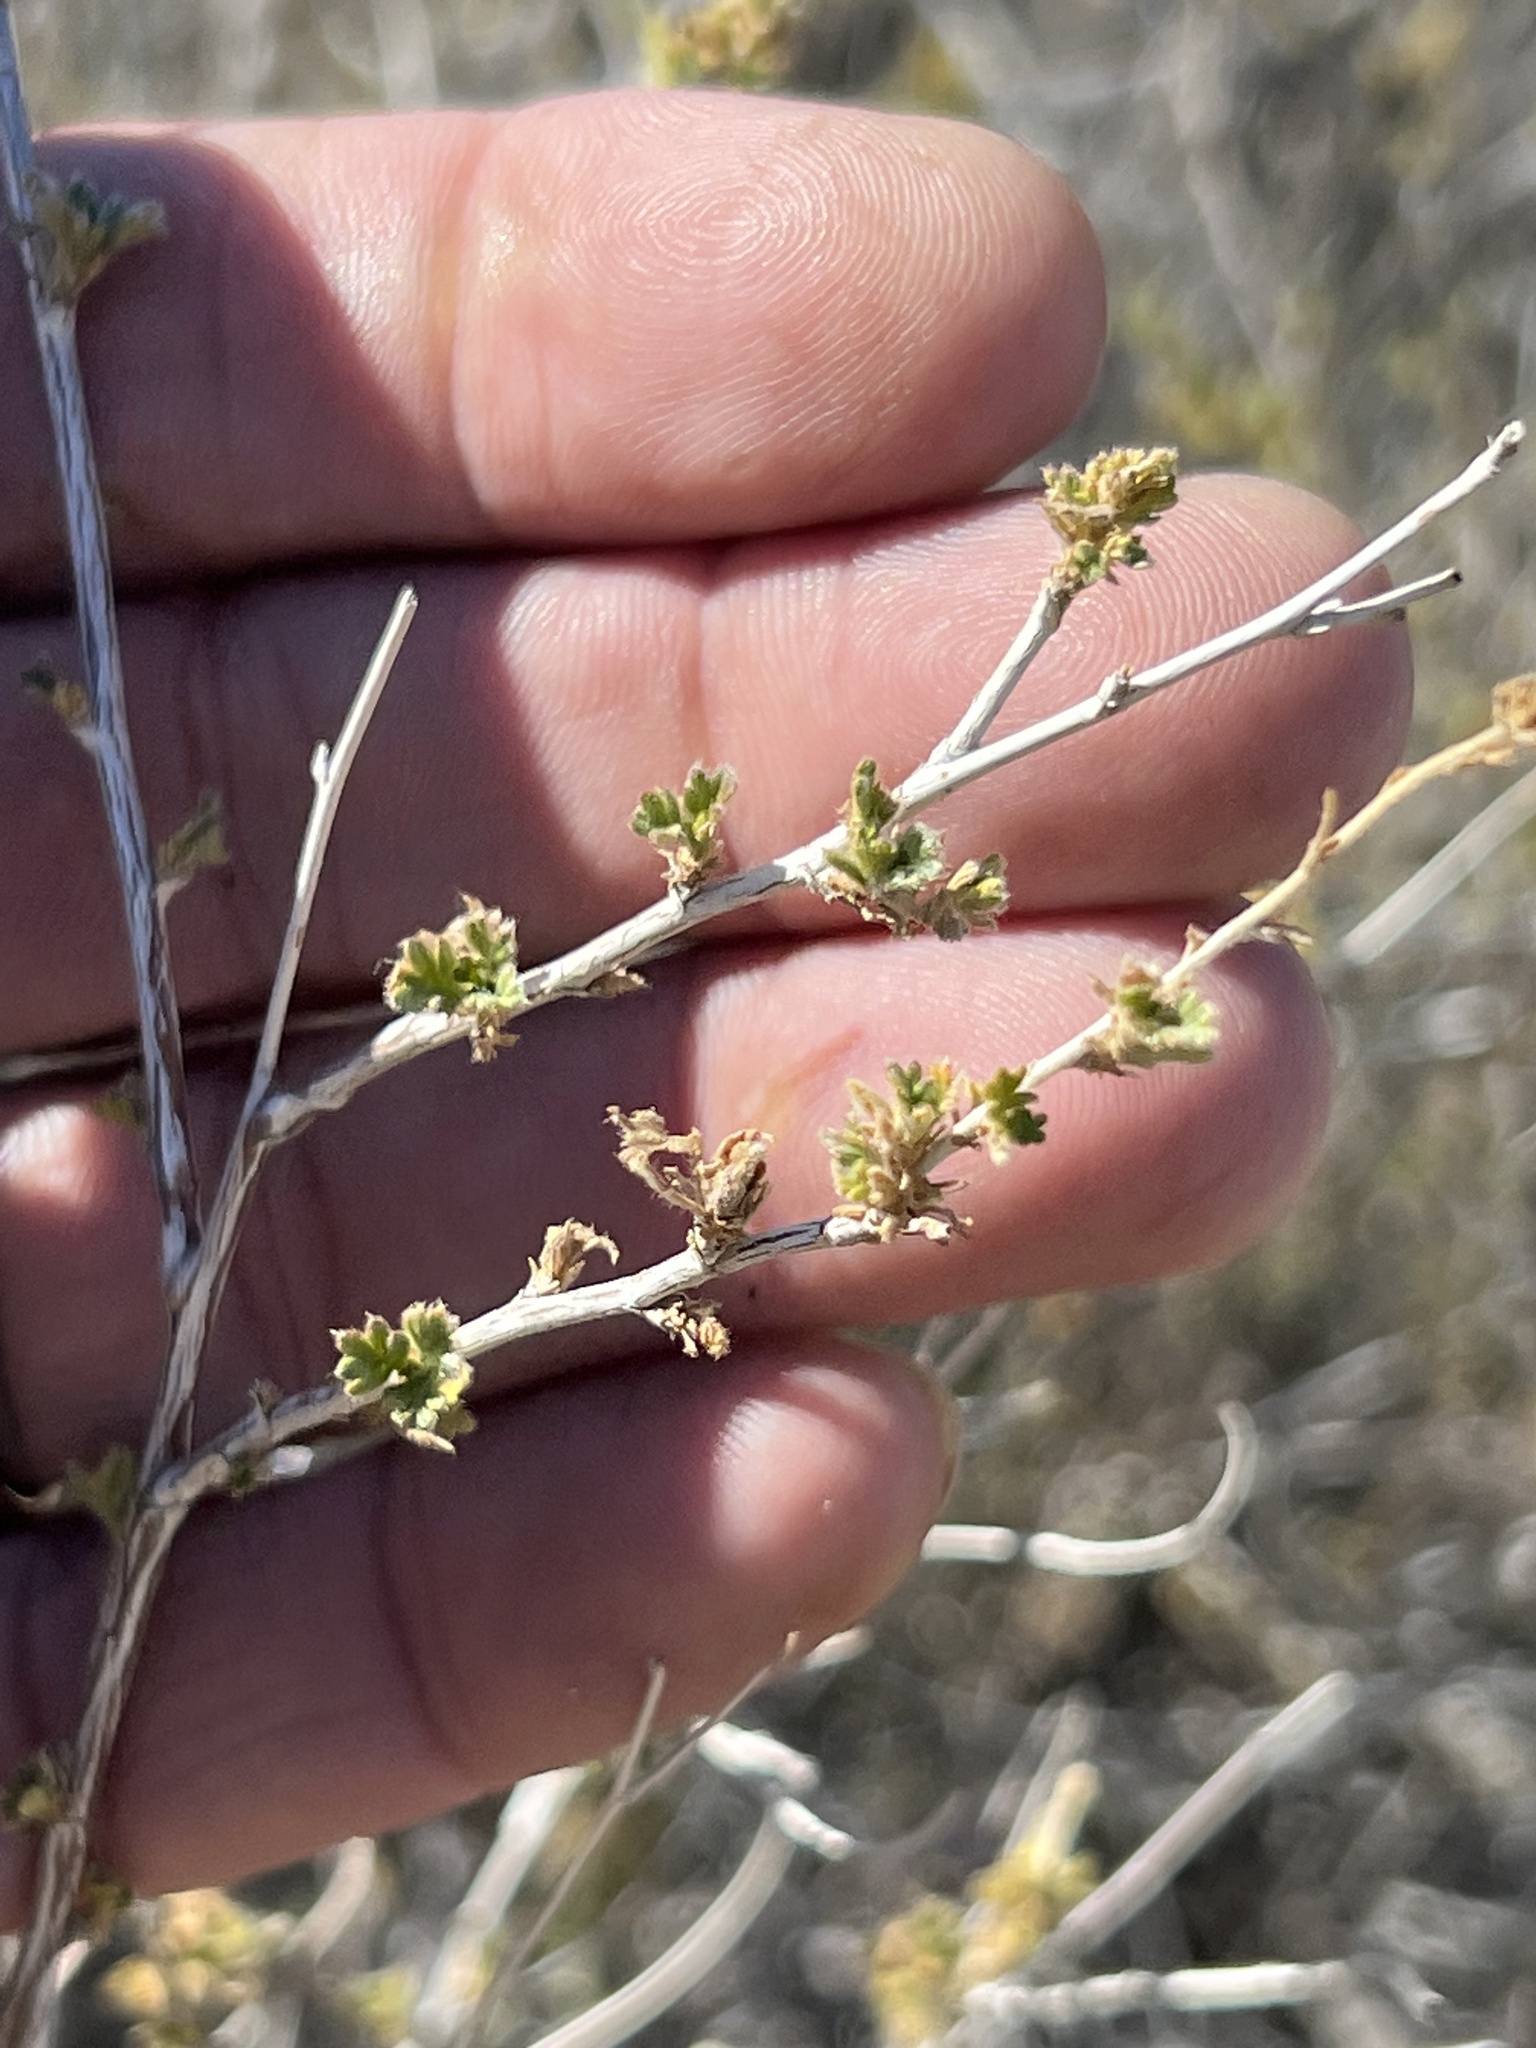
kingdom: Plantae
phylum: Tracheophyta
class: Magnoliopsida
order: Asterales
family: Asteraceae
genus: Brickellia
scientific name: Brickellia laciniata
